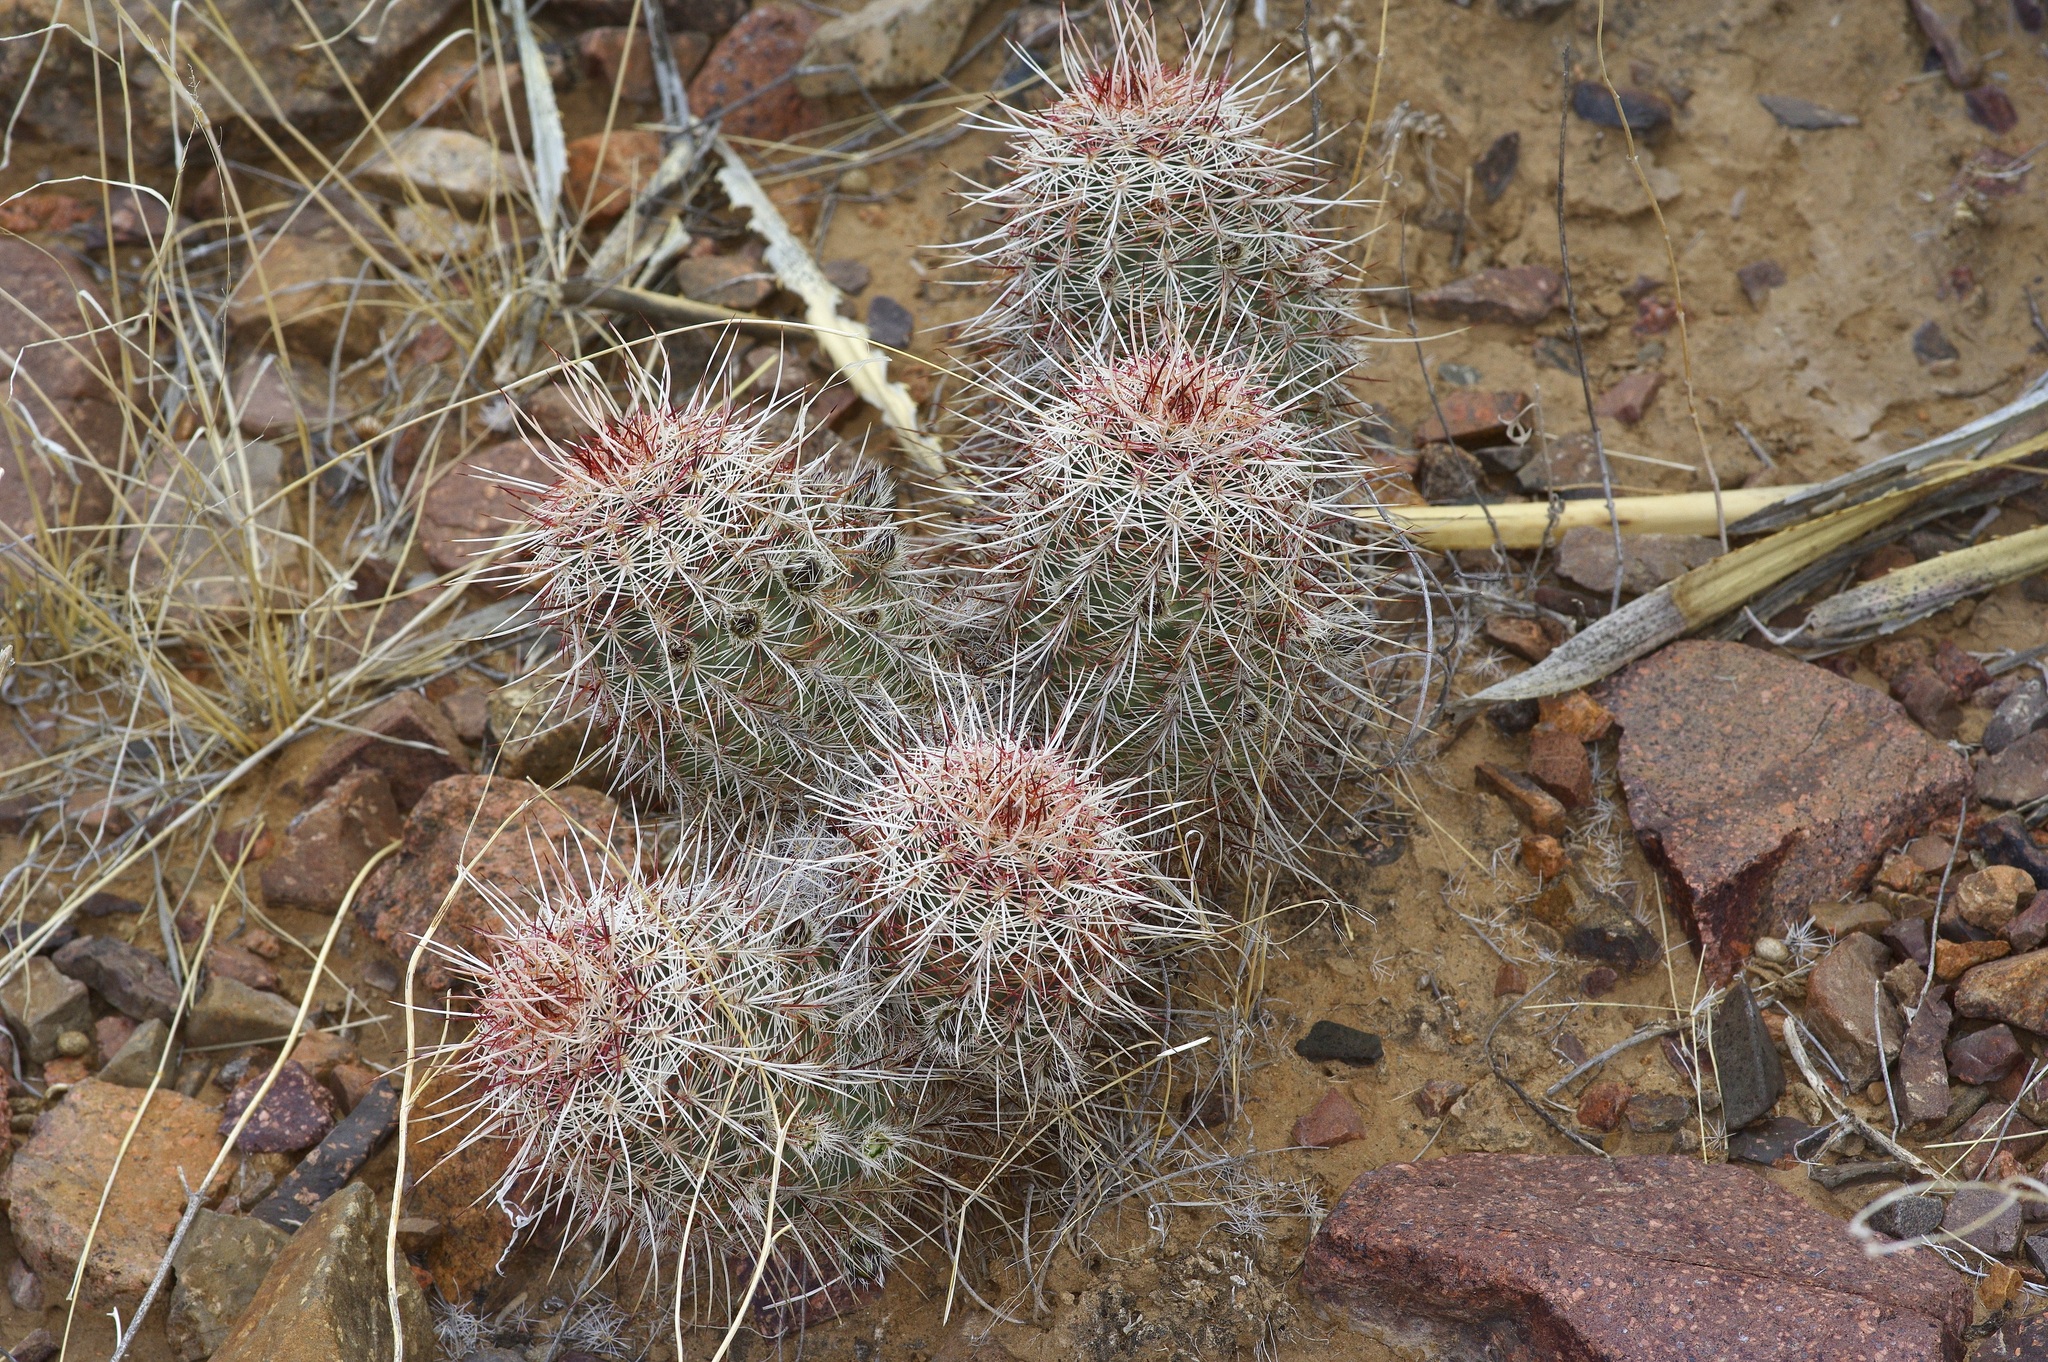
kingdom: Plantae
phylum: Tracheophyta
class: Magnoliopsida
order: Caryophyllales
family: Cactaceae
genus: Echinocereus
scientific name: Echinocereus viridiflorus
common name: Nylon hedgehog cactus
